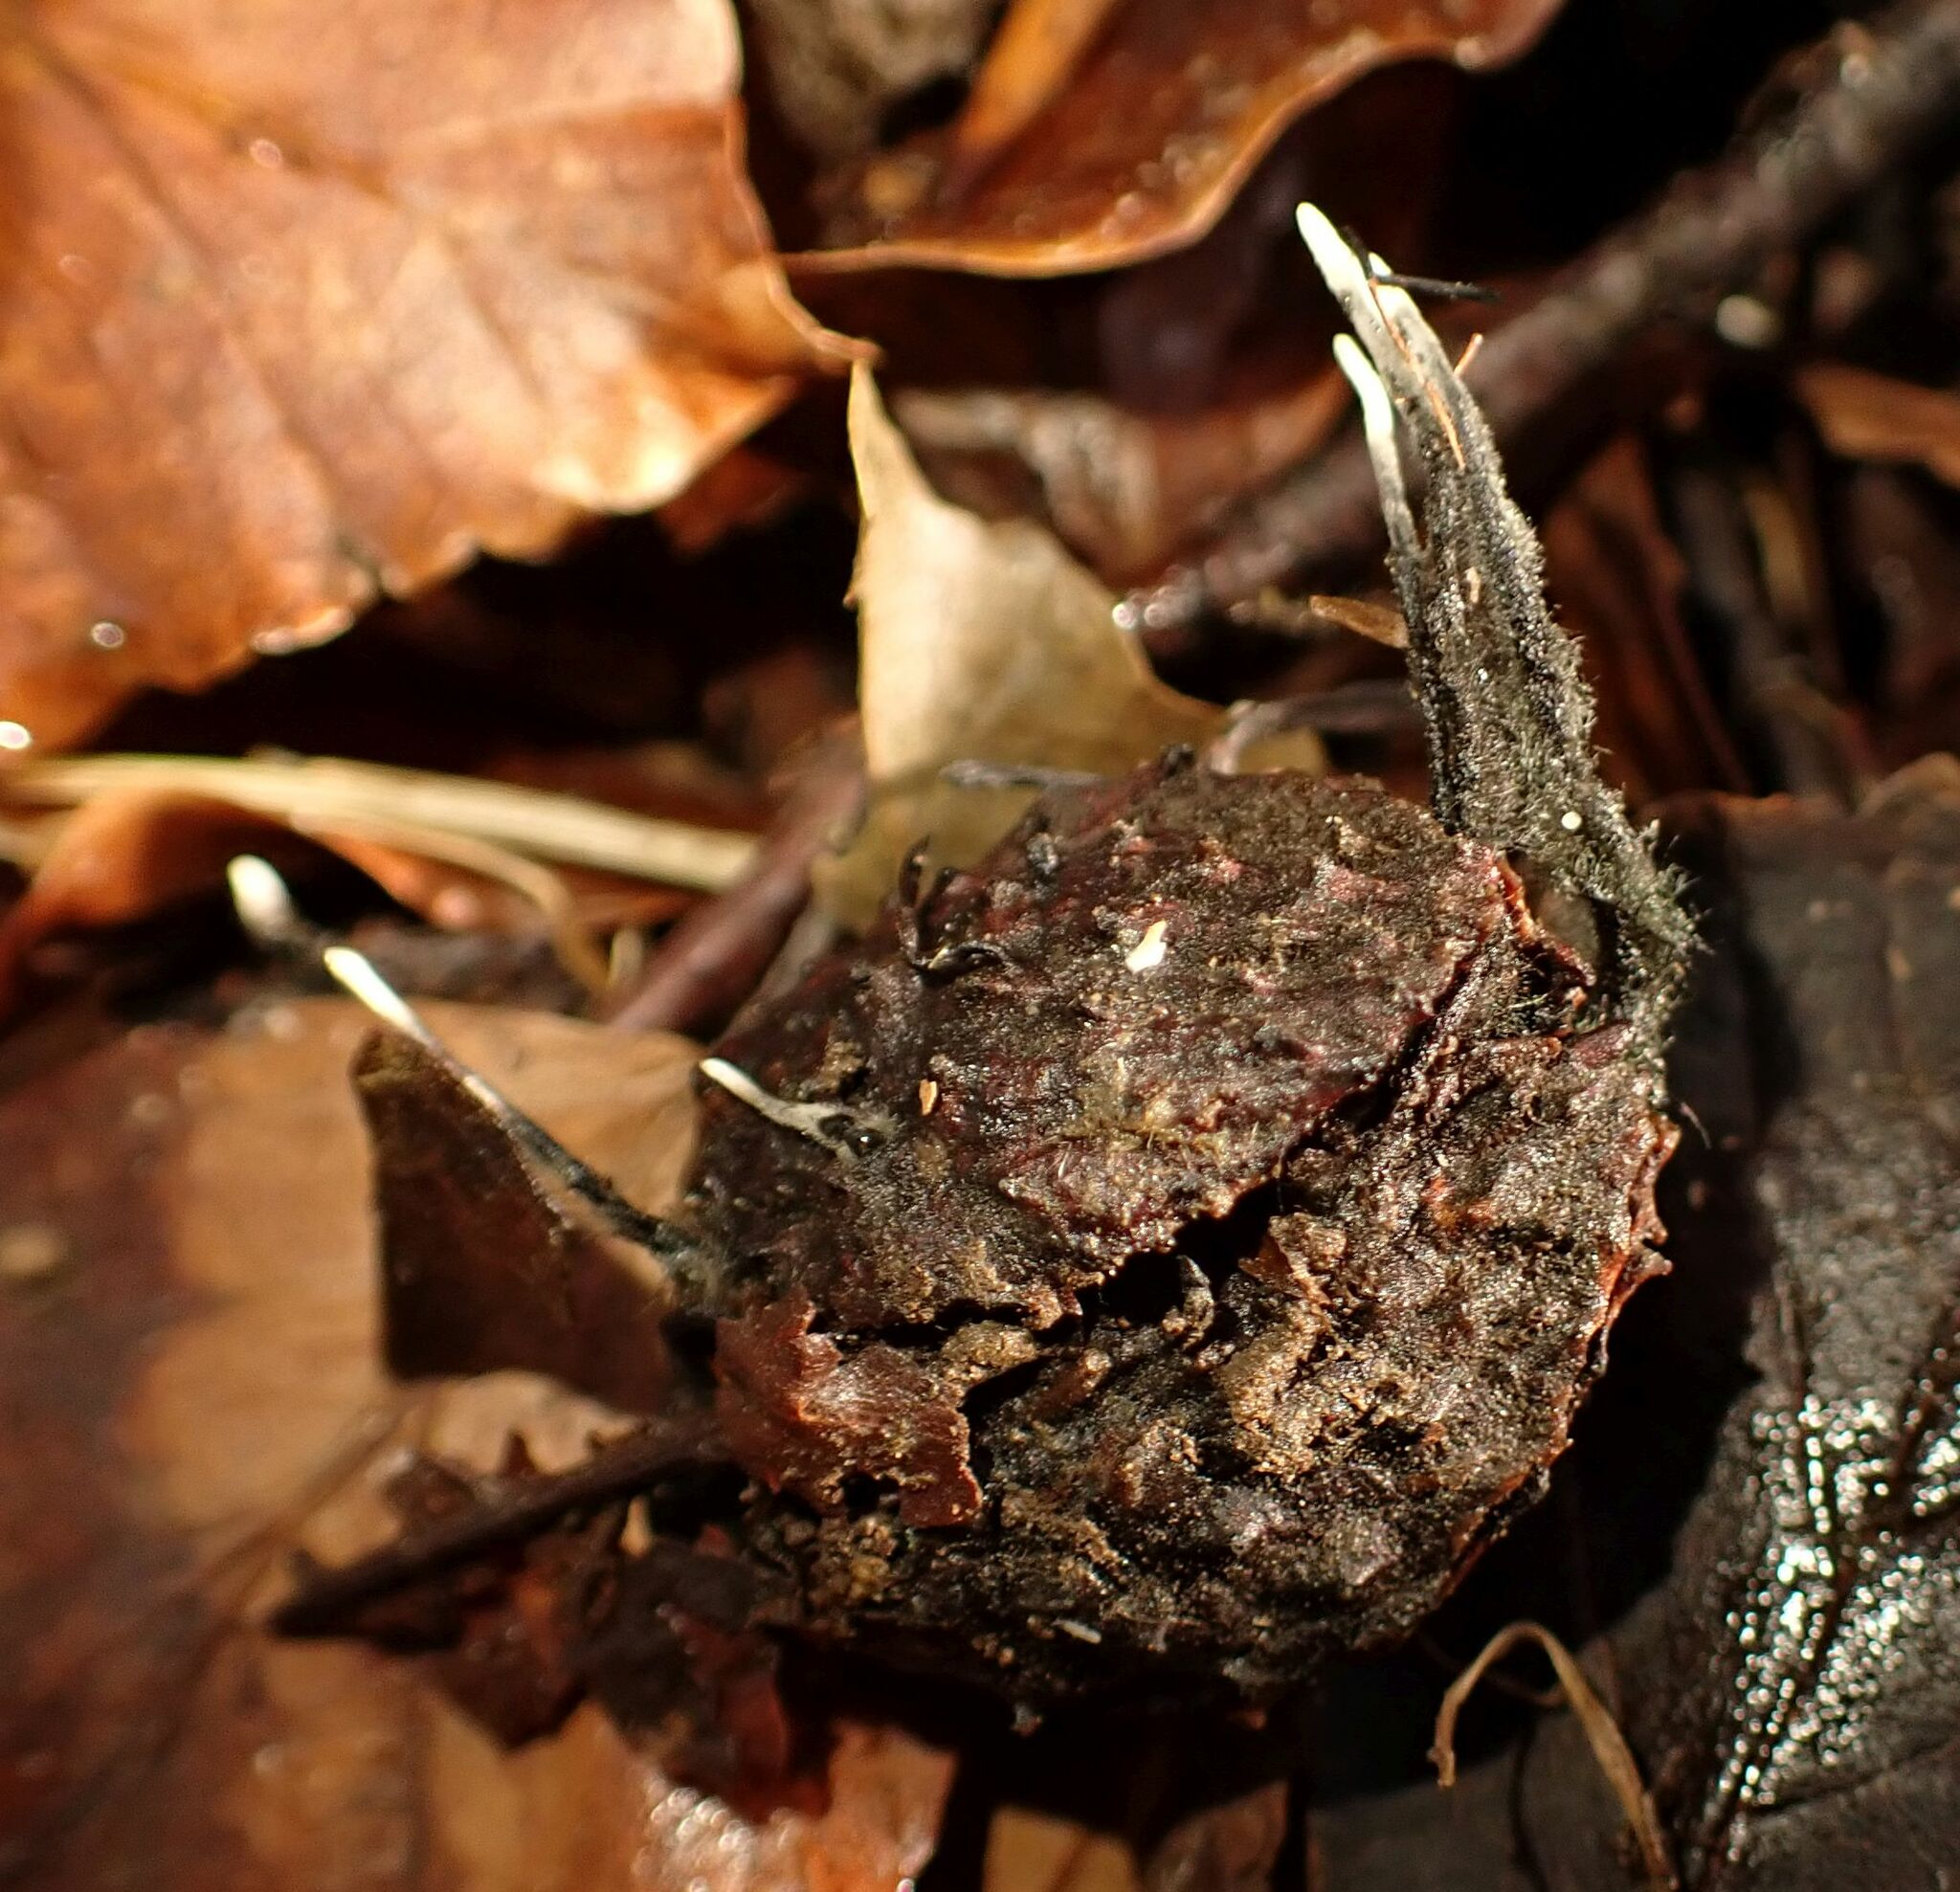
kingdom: Fungi
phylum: Ascomycota
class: Sordariomycetes
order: Xylariales
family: Xylariaceae
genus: Xylaria
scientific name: Xylaria carpophila
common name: Beechmast candlesnuff
